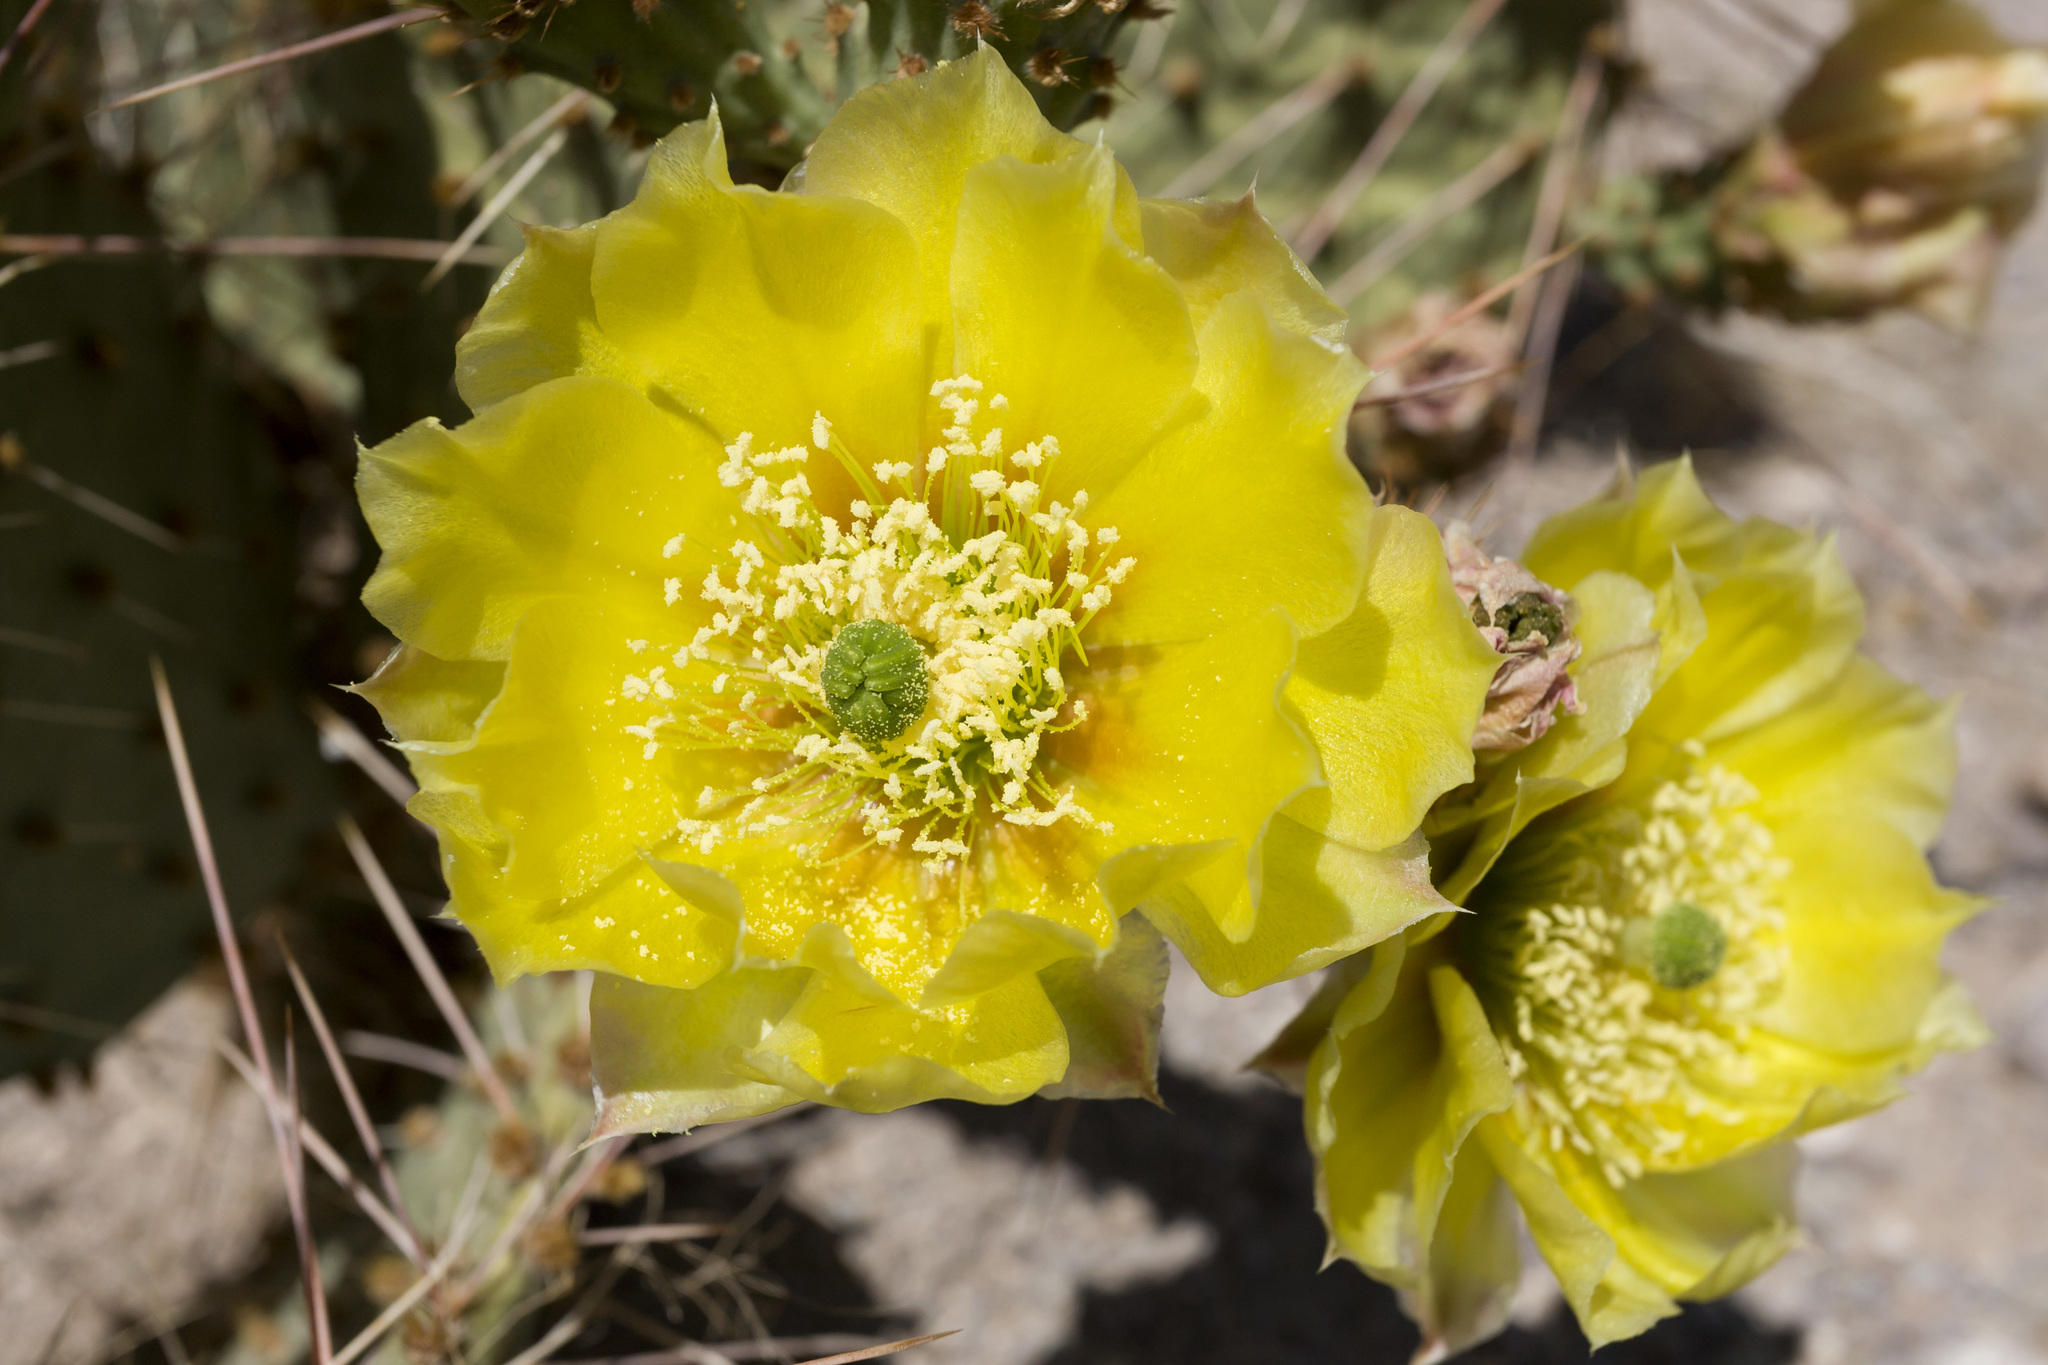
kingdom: Plantae
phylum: Tracheophyta
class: Magnoliopsida
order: Caryophyllales
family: Cactaceae
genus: Opuntia
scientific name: Opuntia macrorhiza
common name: Grassland pricklypear
